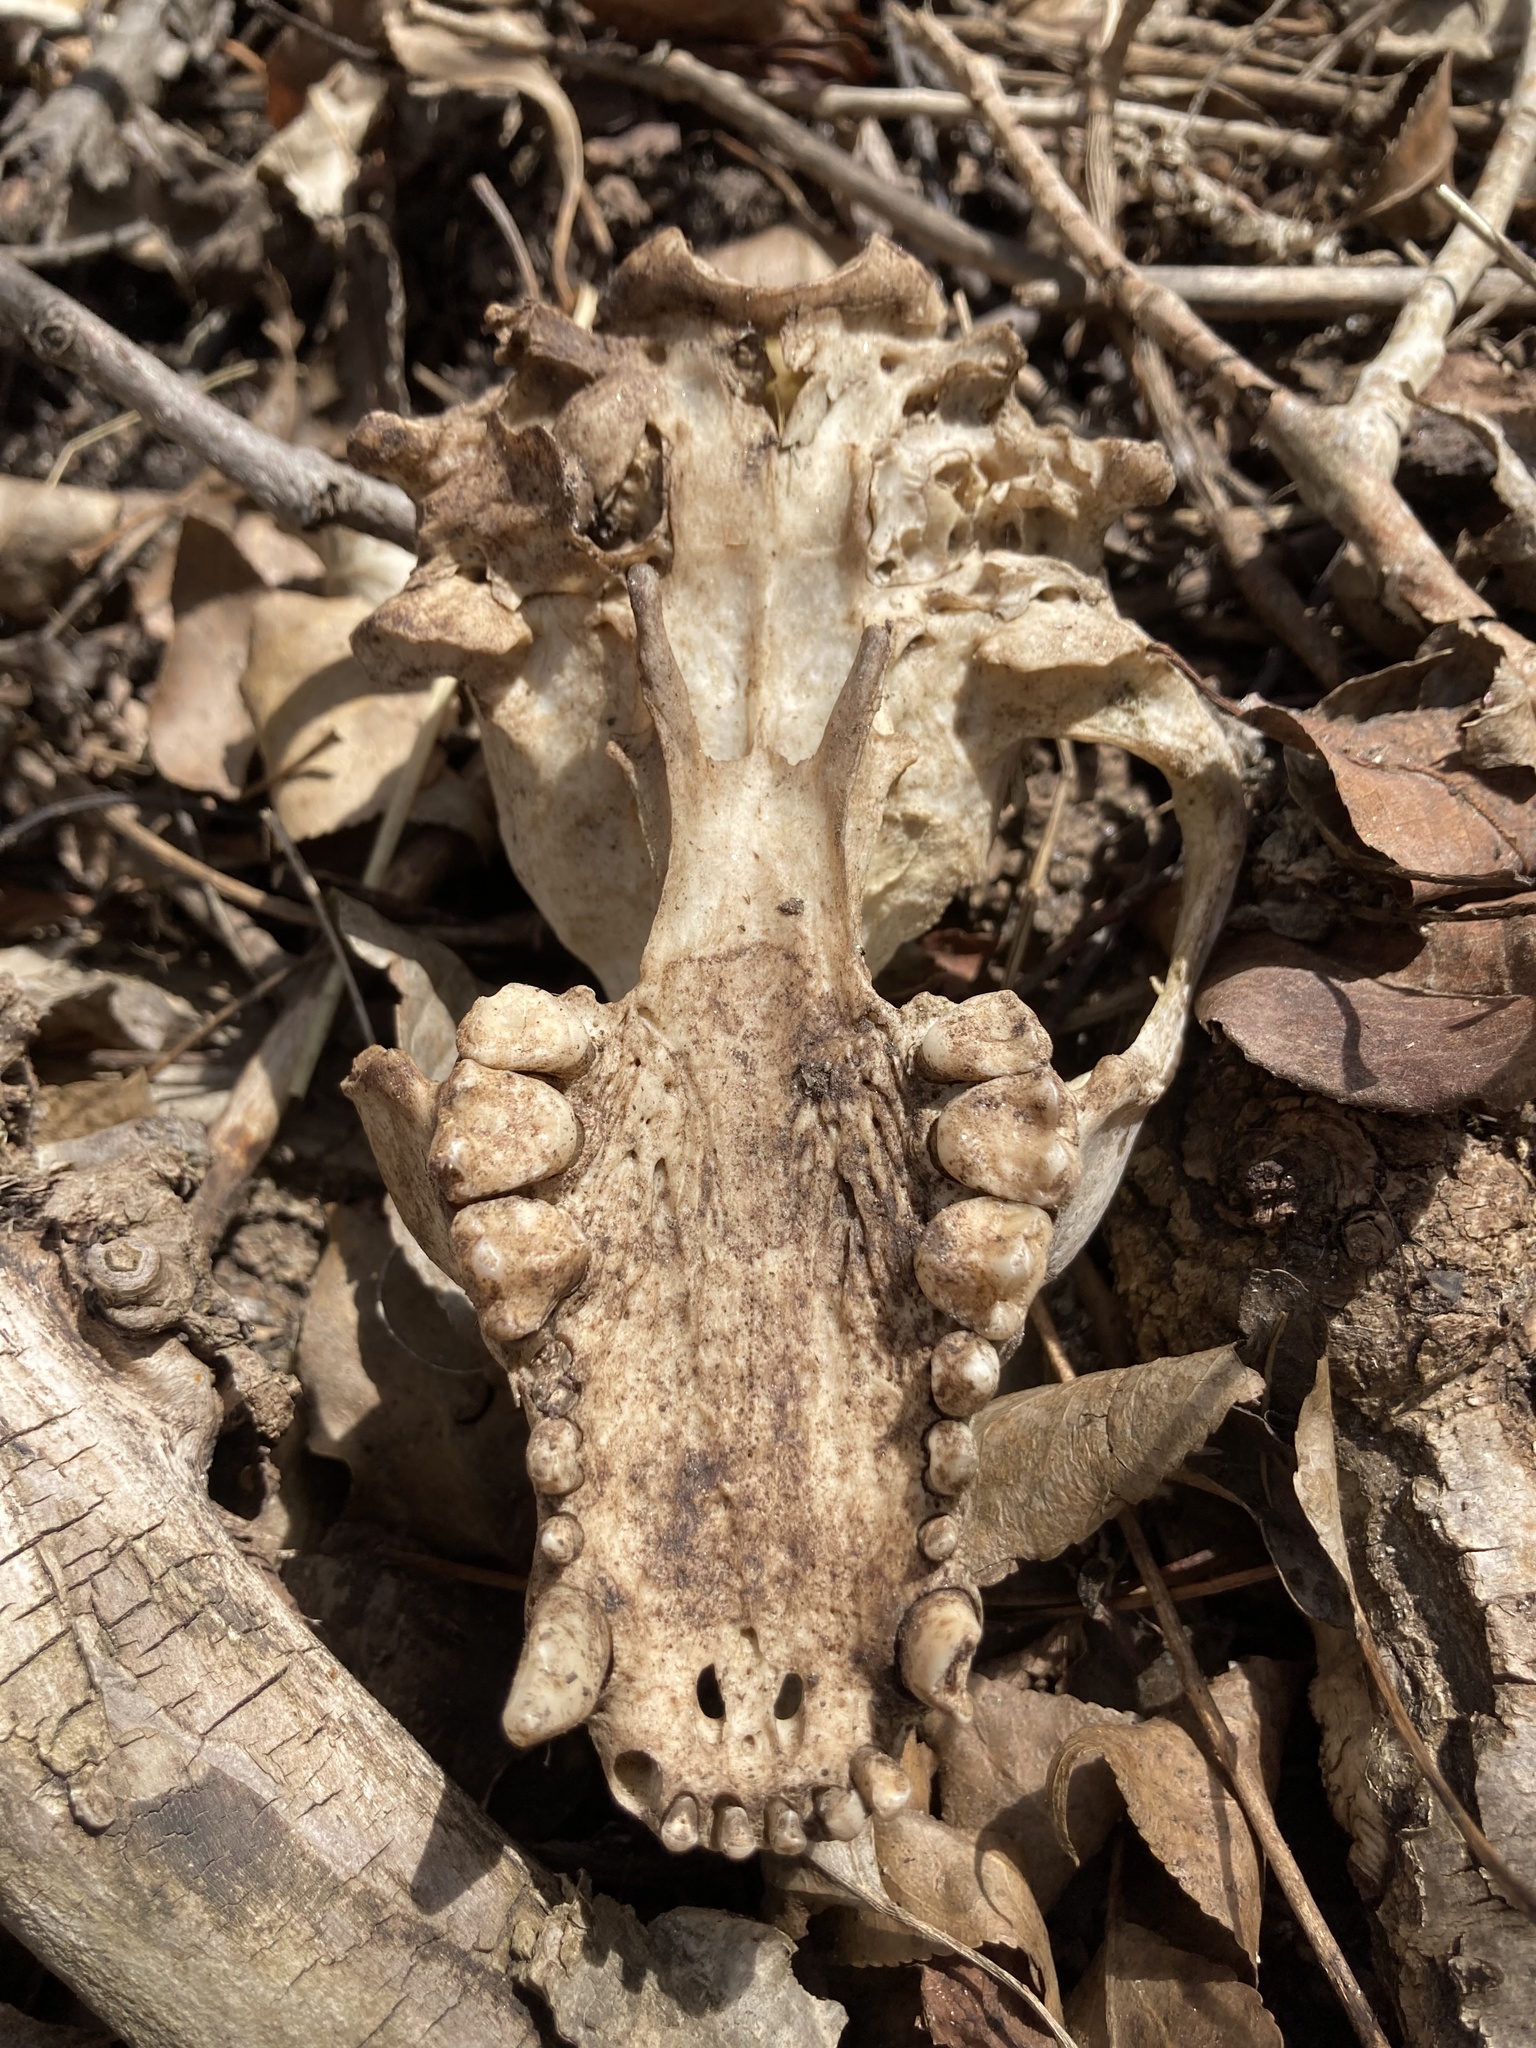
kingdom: Animalia
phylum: Chordata
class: Mammalia
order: Carnivora
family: Procyonidae
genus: Procyon
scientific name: Procyon lotor
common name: Raccoon
